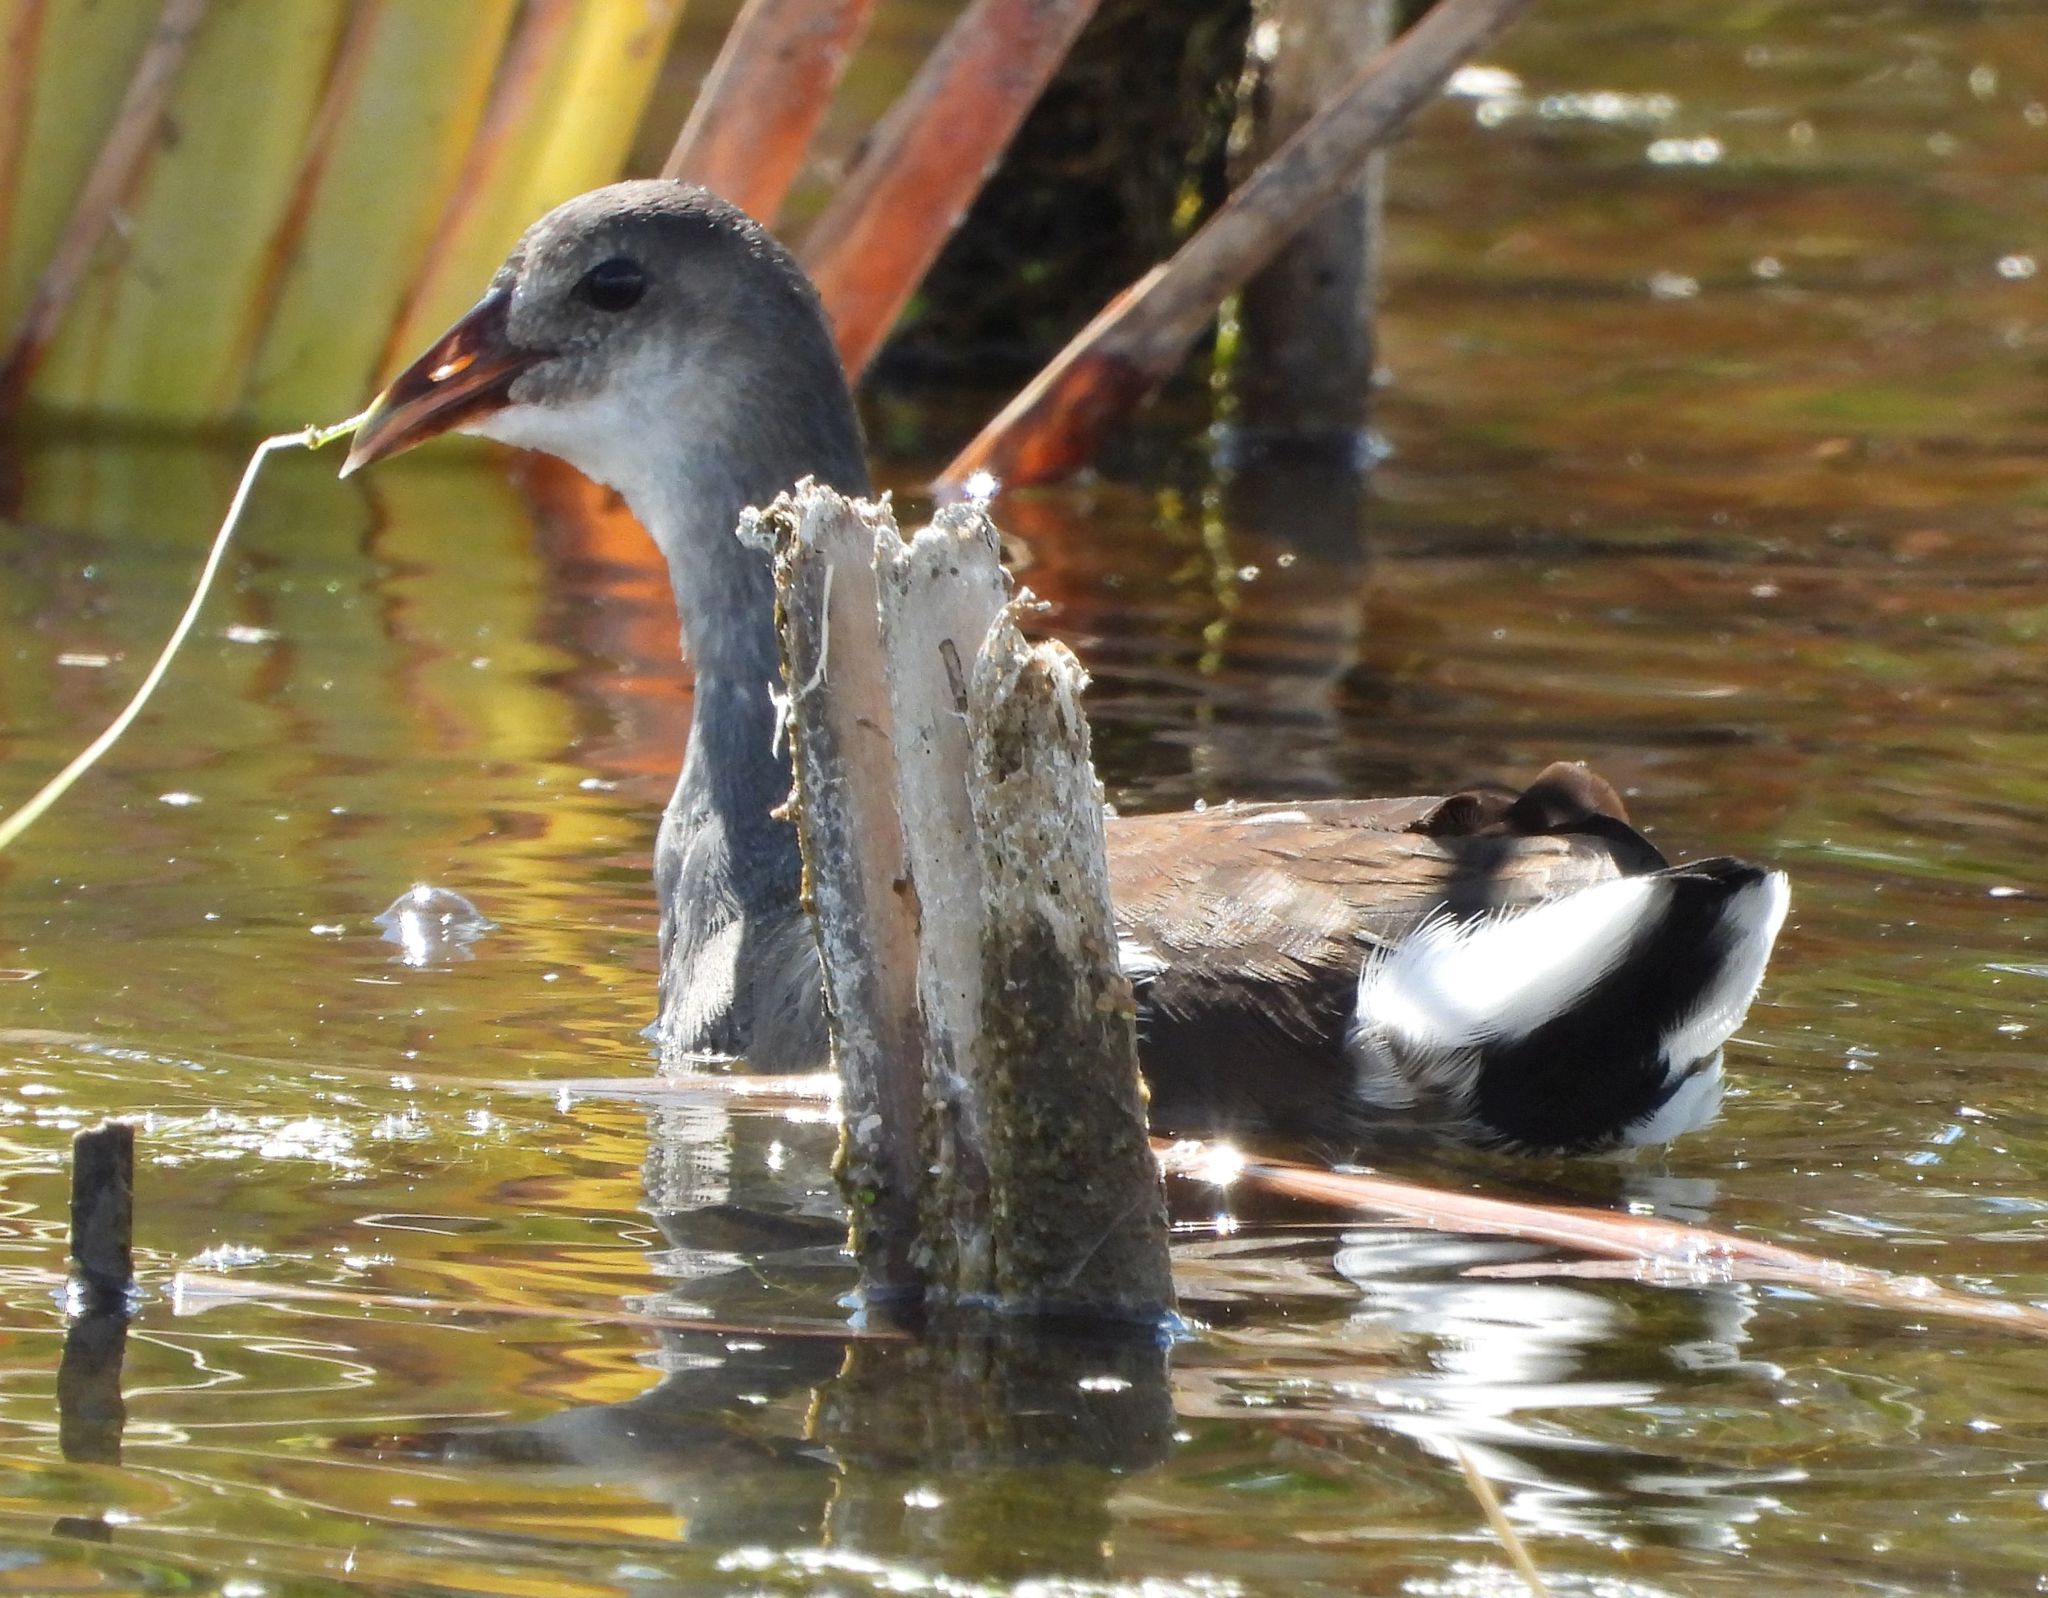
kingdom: Animalia
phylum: Chordata
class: Aves
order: Gruiformes
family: Rallidae
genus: Gallinula
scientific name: Gallinula chloropus
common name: Common moorhen
